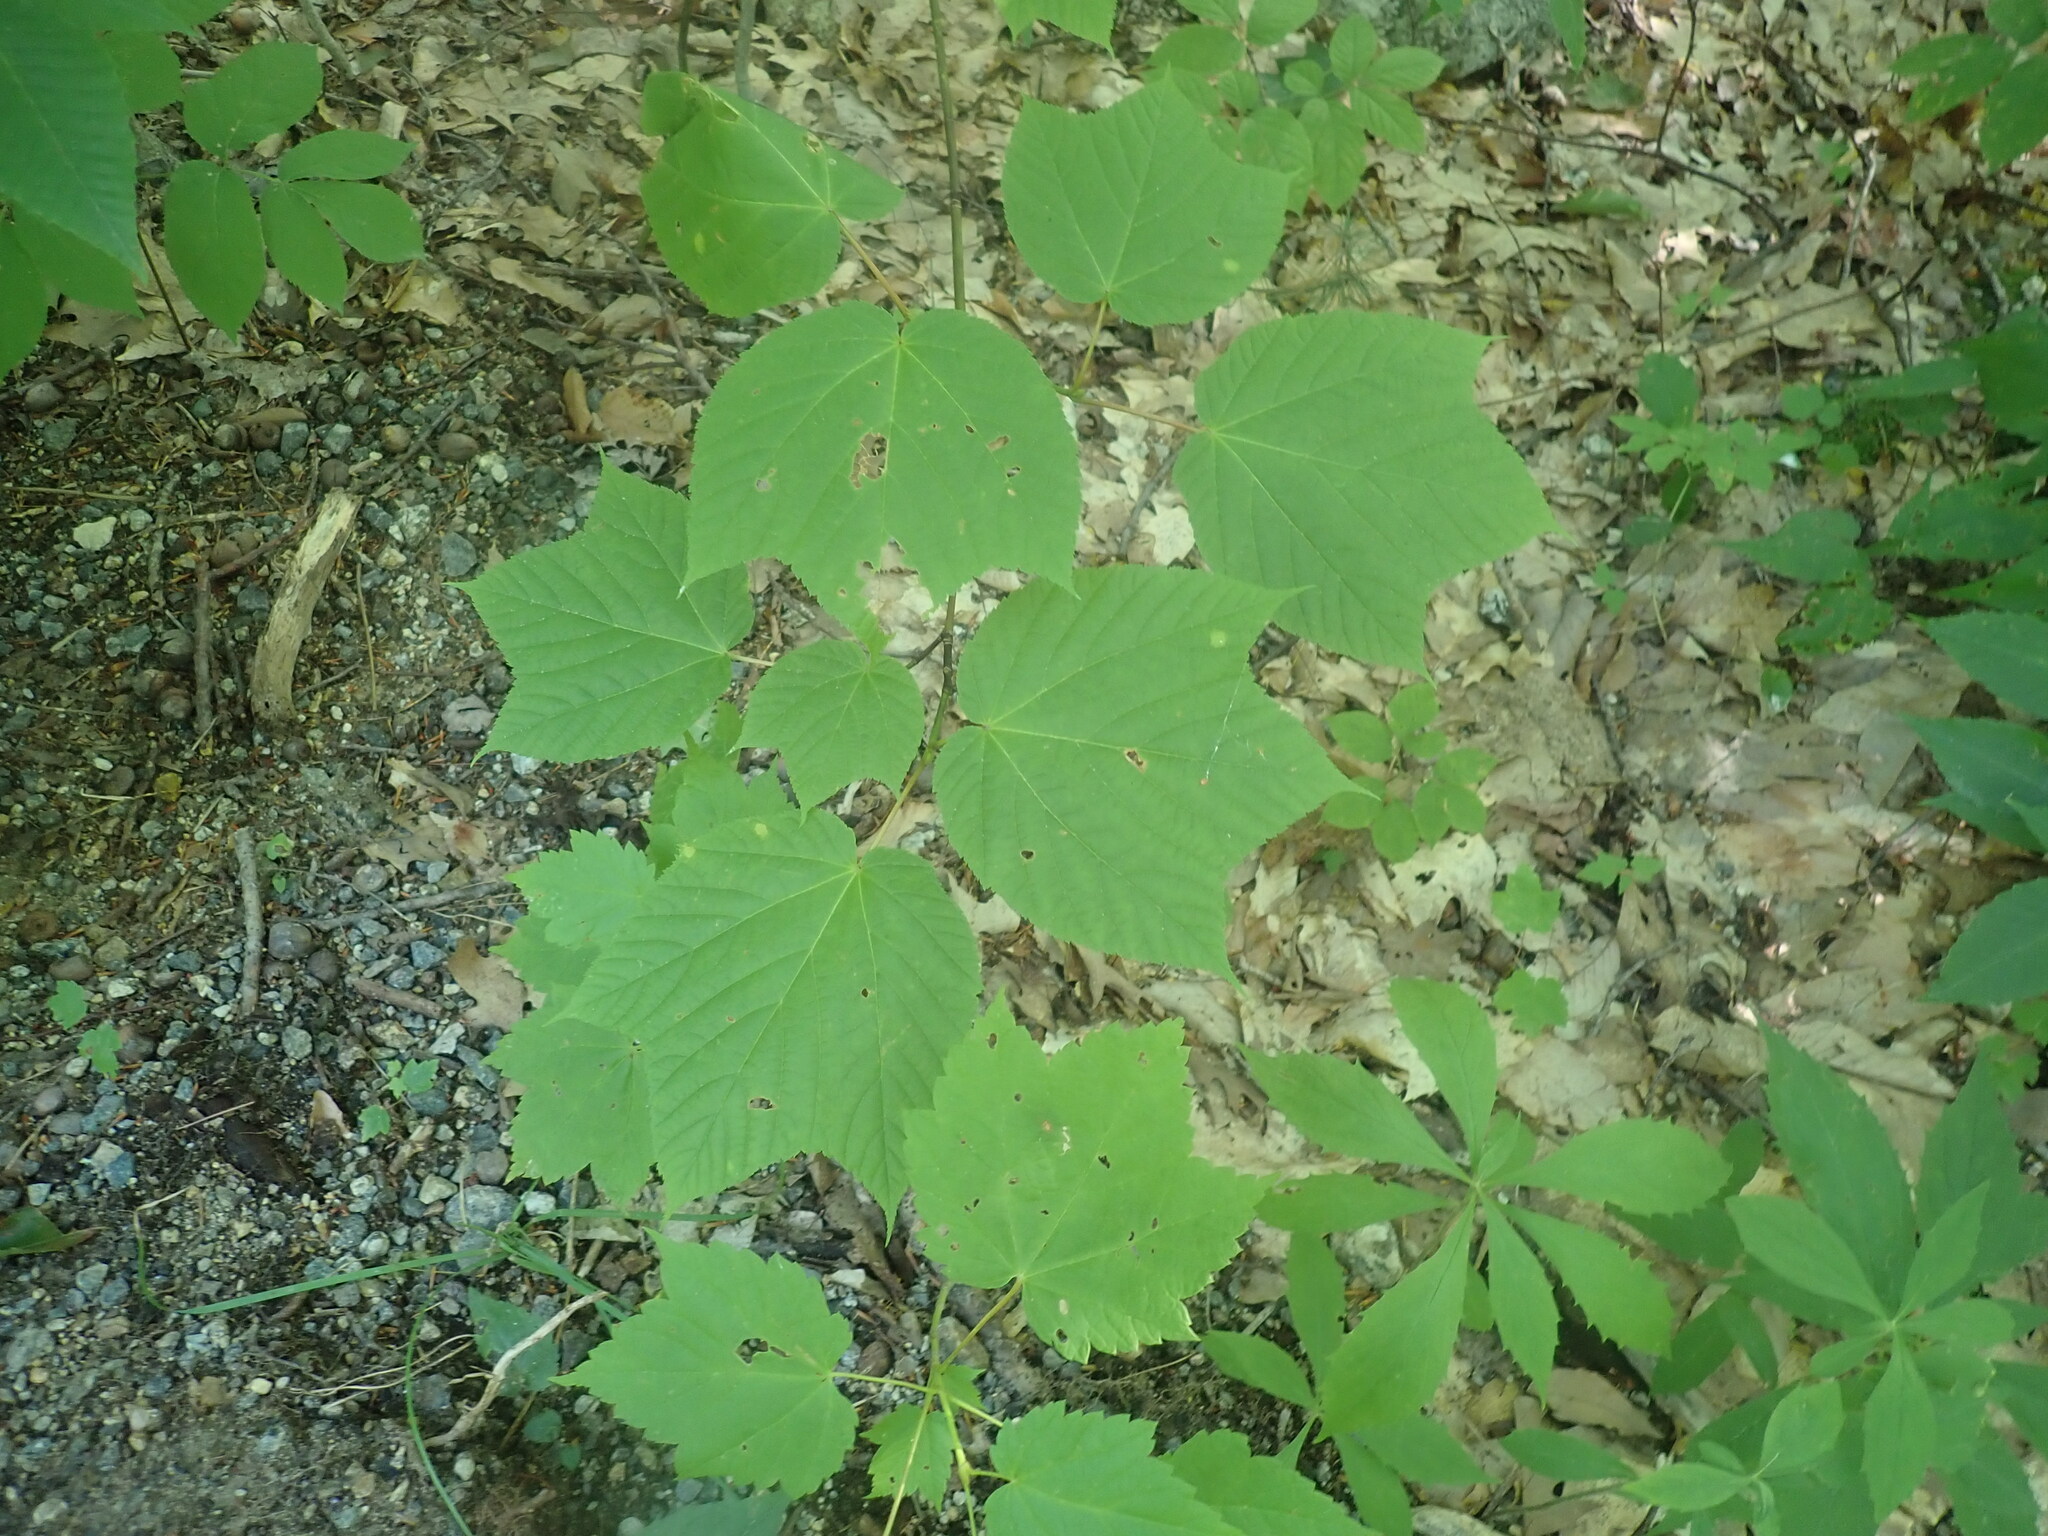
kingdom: Plantae
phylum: Tracheophyta
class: Magnoliopsida
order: Sapindales
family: Sapindaceae
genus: Acer
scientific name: Acer pensylvanicum
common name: Moosewood
